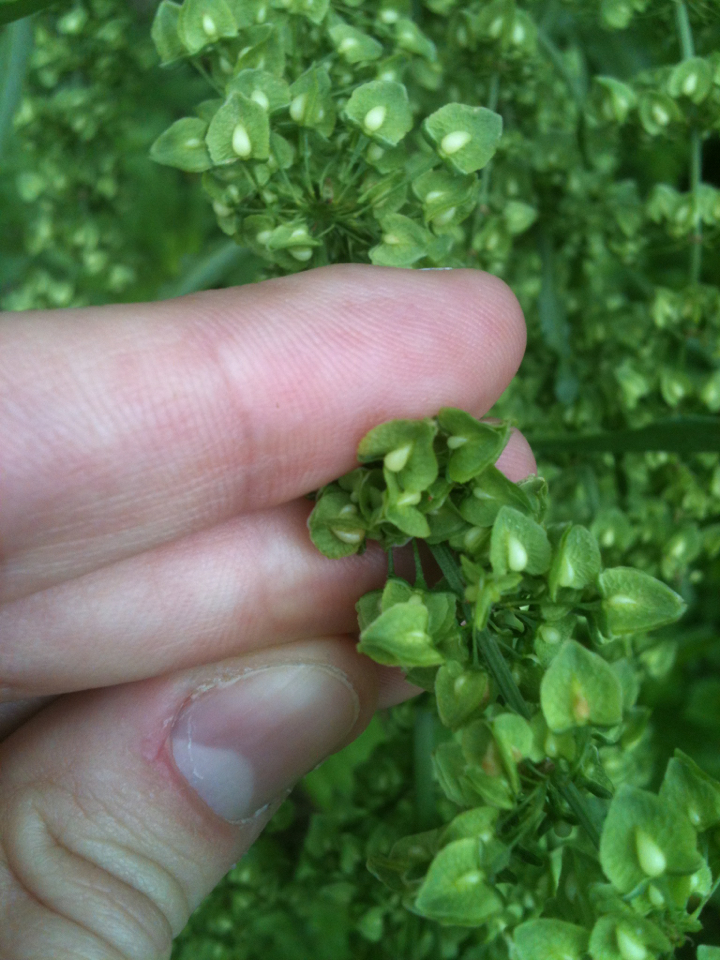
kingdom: Plantae
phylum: Tracheophyta
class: Magnoliopsida
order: Caryophyllales
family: Polygonaceae
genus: Rumex
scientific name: Rumex crispus
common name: Curled dock
